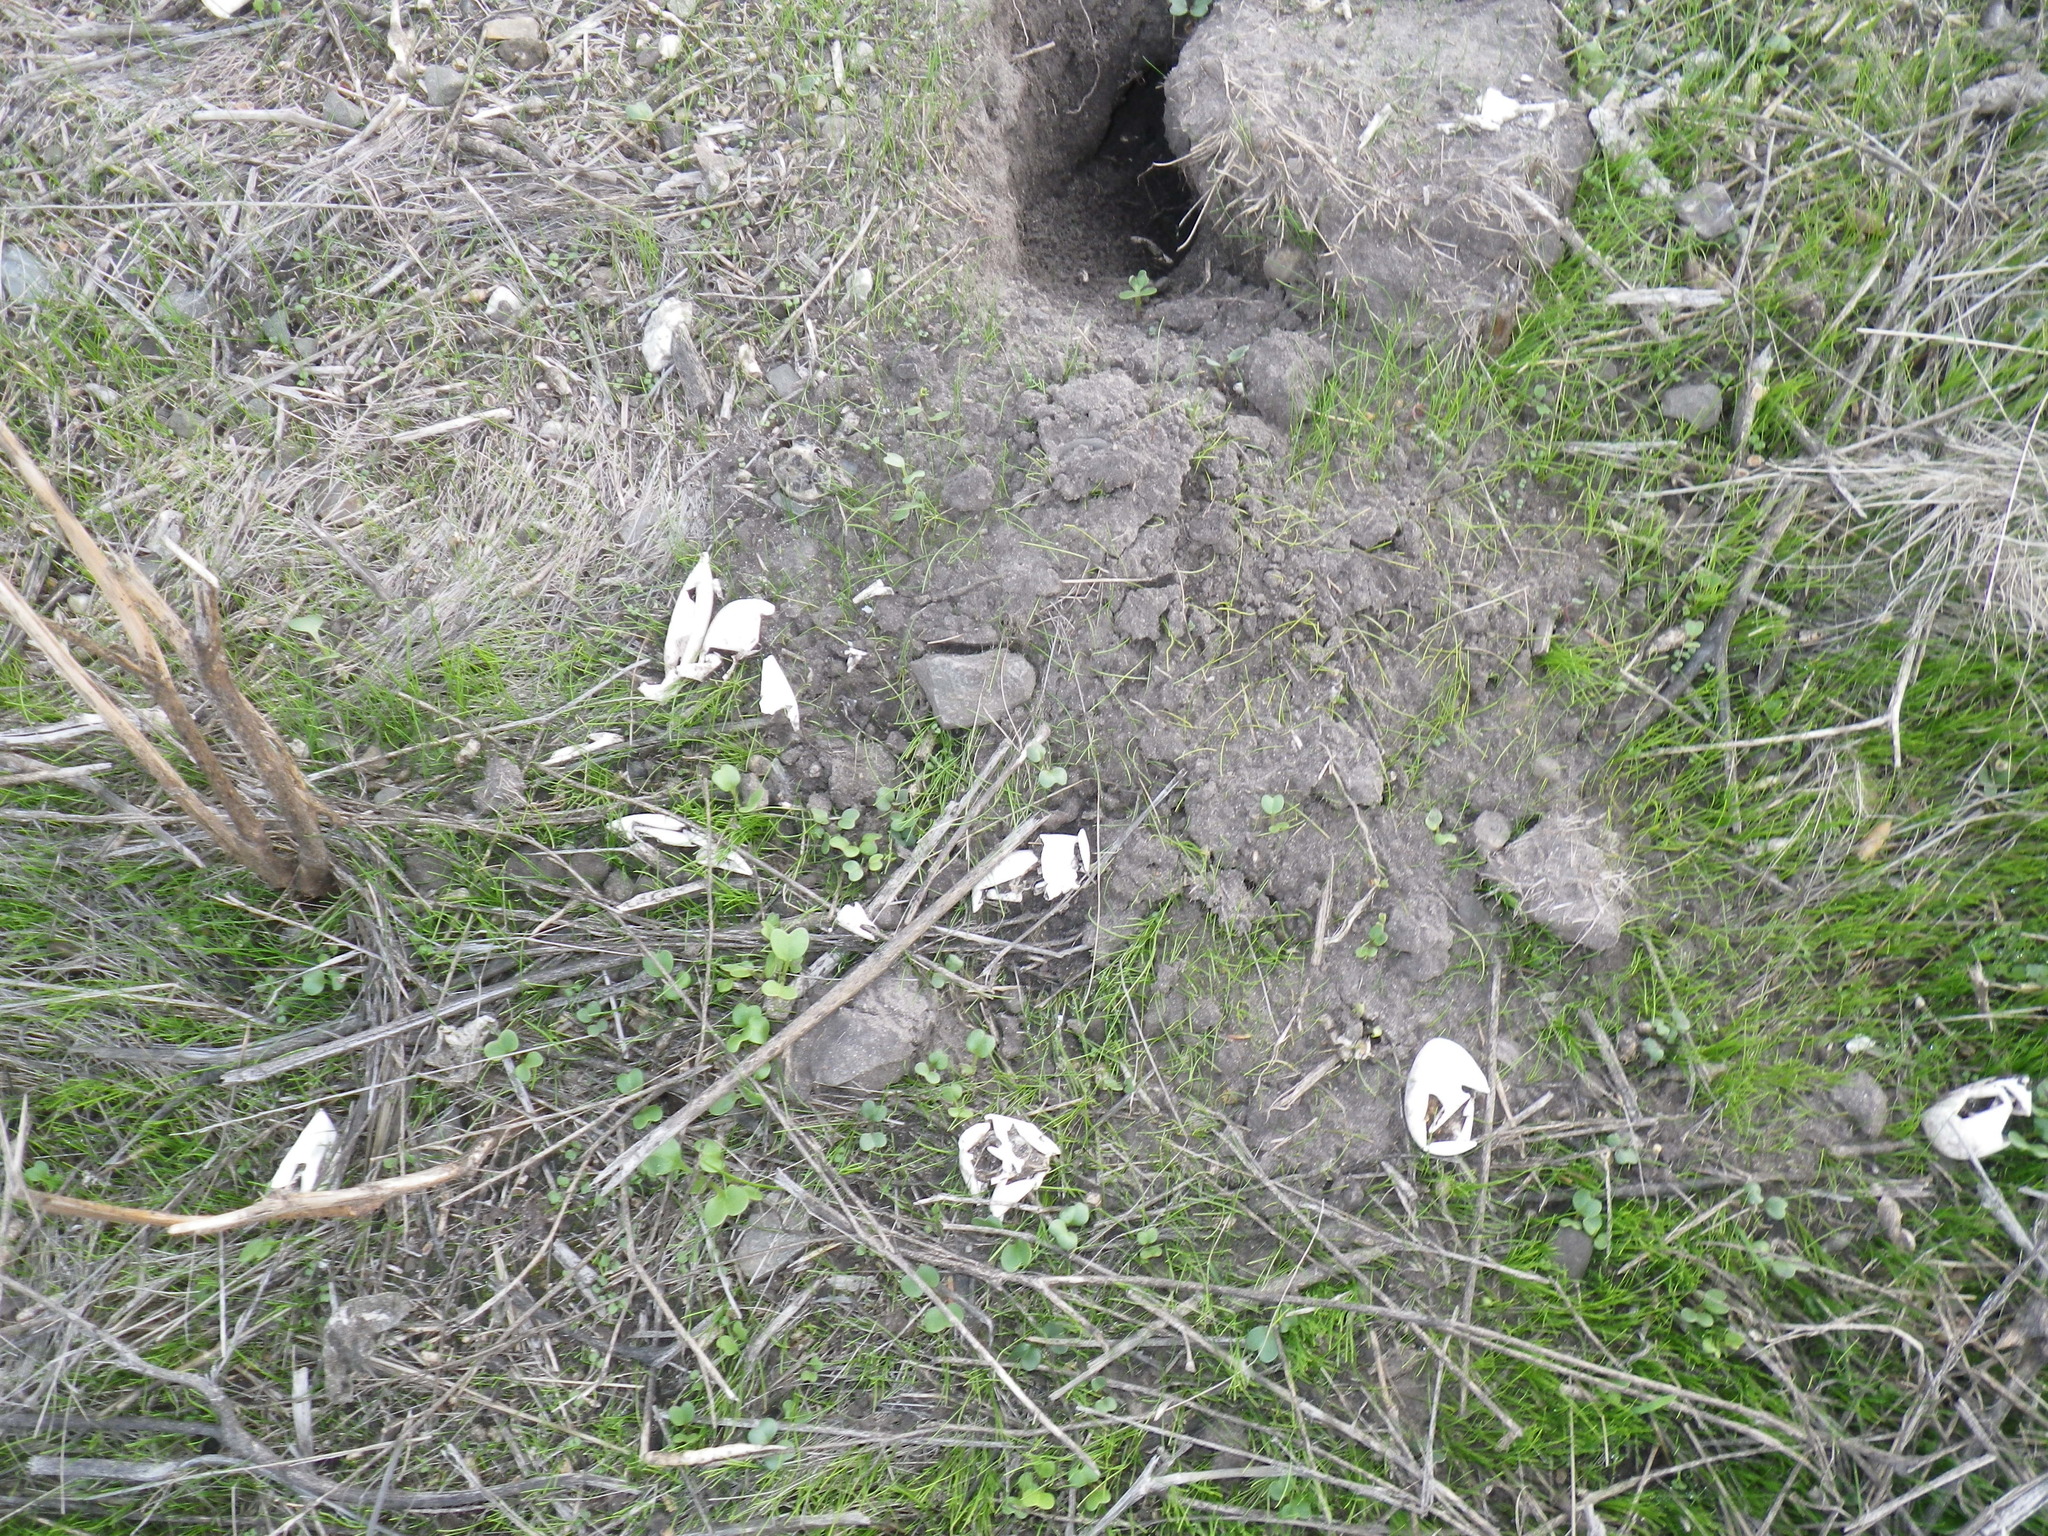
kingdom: Animalia
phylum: Chordata
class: Testudines
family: Emydidae
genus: Trachemys
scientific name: Trachemys scripta
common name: Slider
